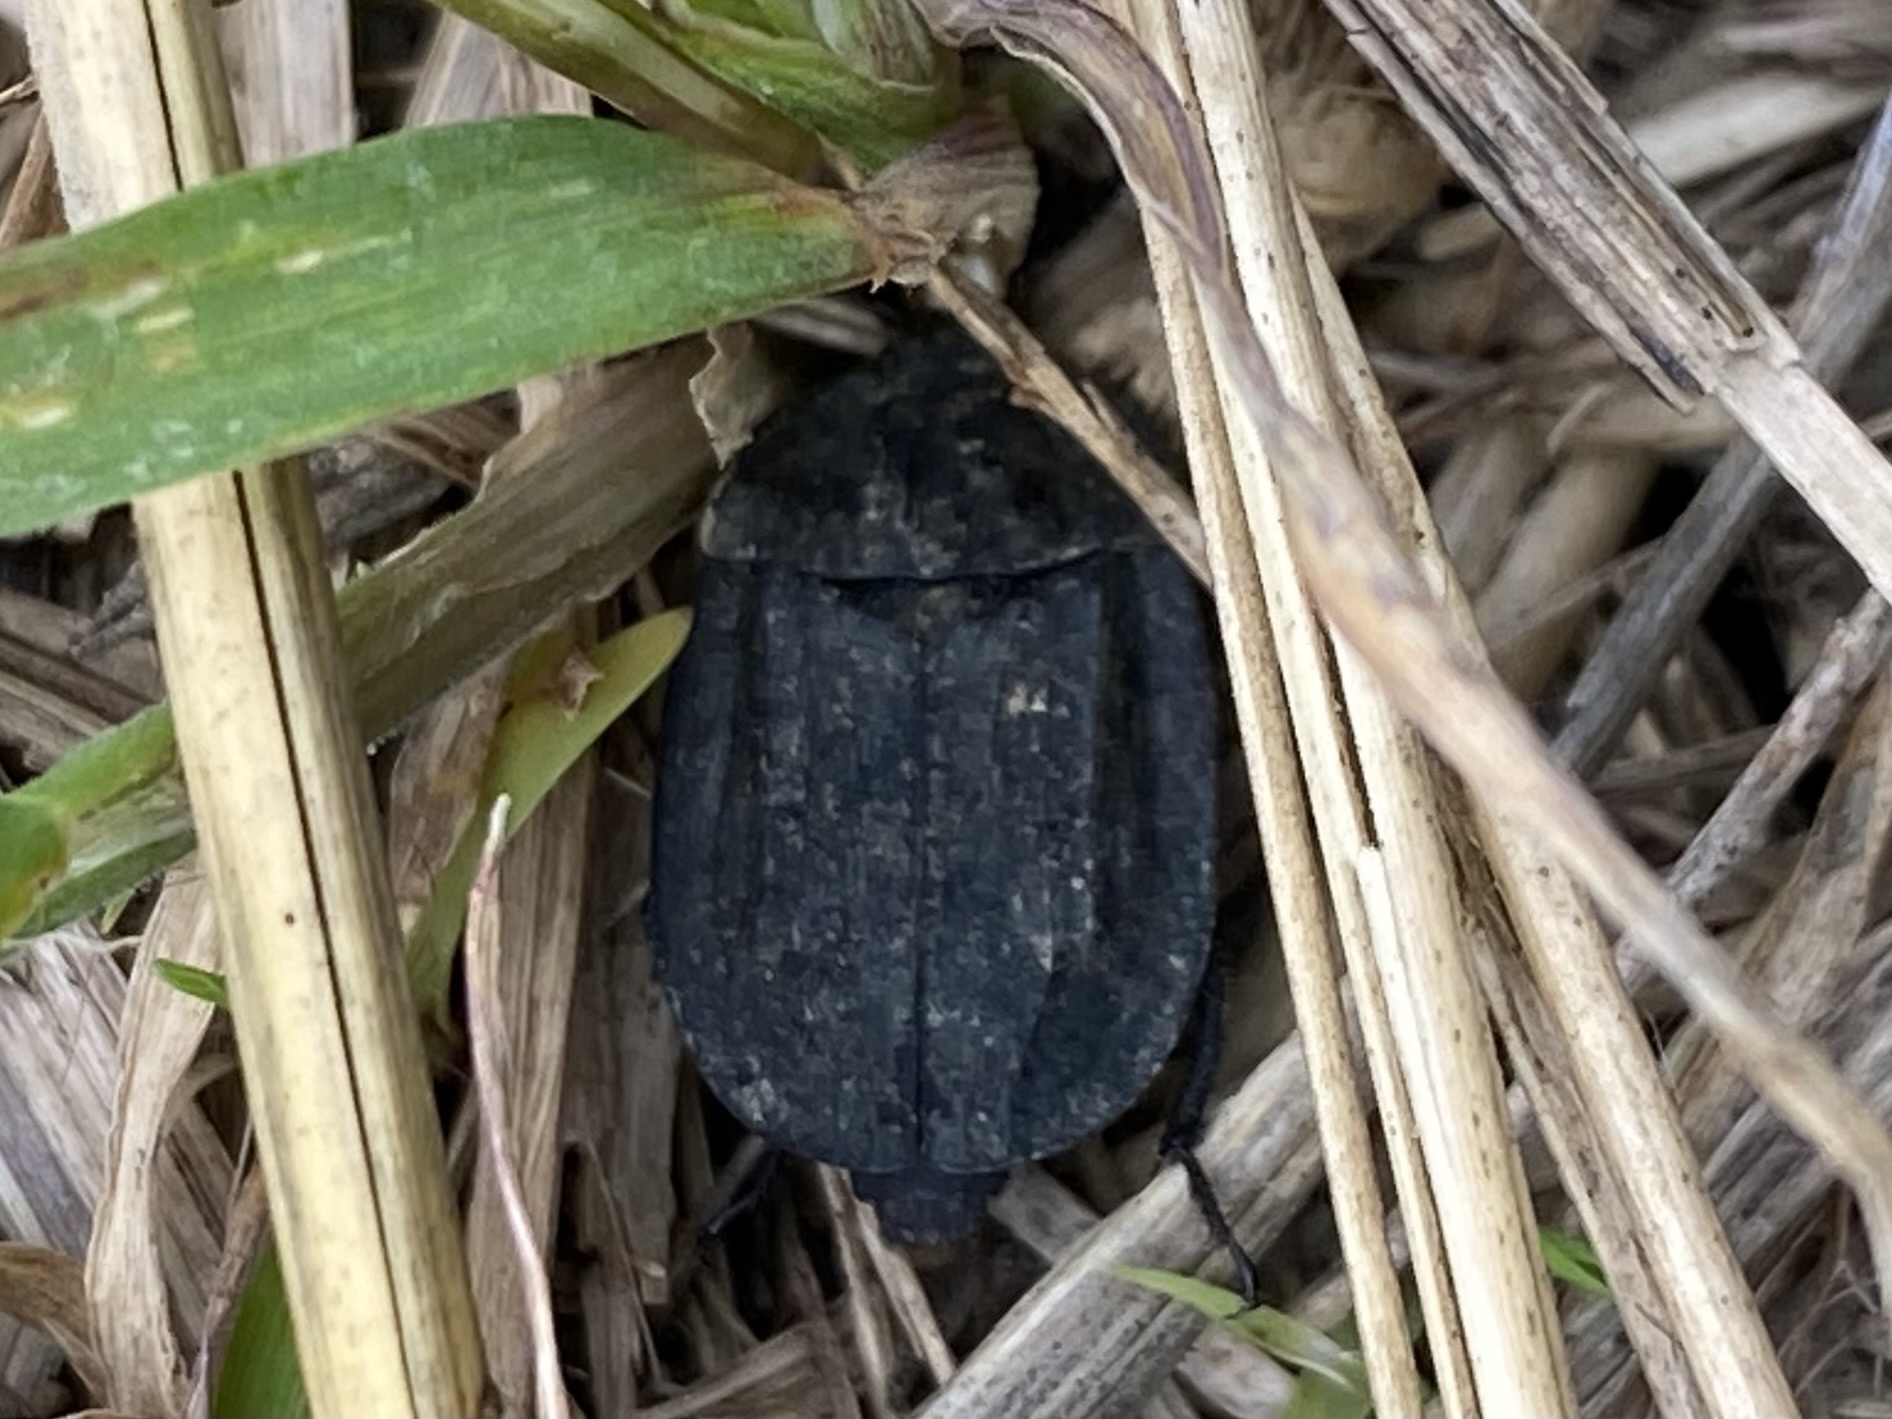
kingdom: Animalia
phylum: Arthropoda
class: Insecta
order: Coleoptera
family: Staphylinidae
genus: Oiceoptoma
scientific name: Oiceoptoma inaequale
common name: Ridged carrion beetle
